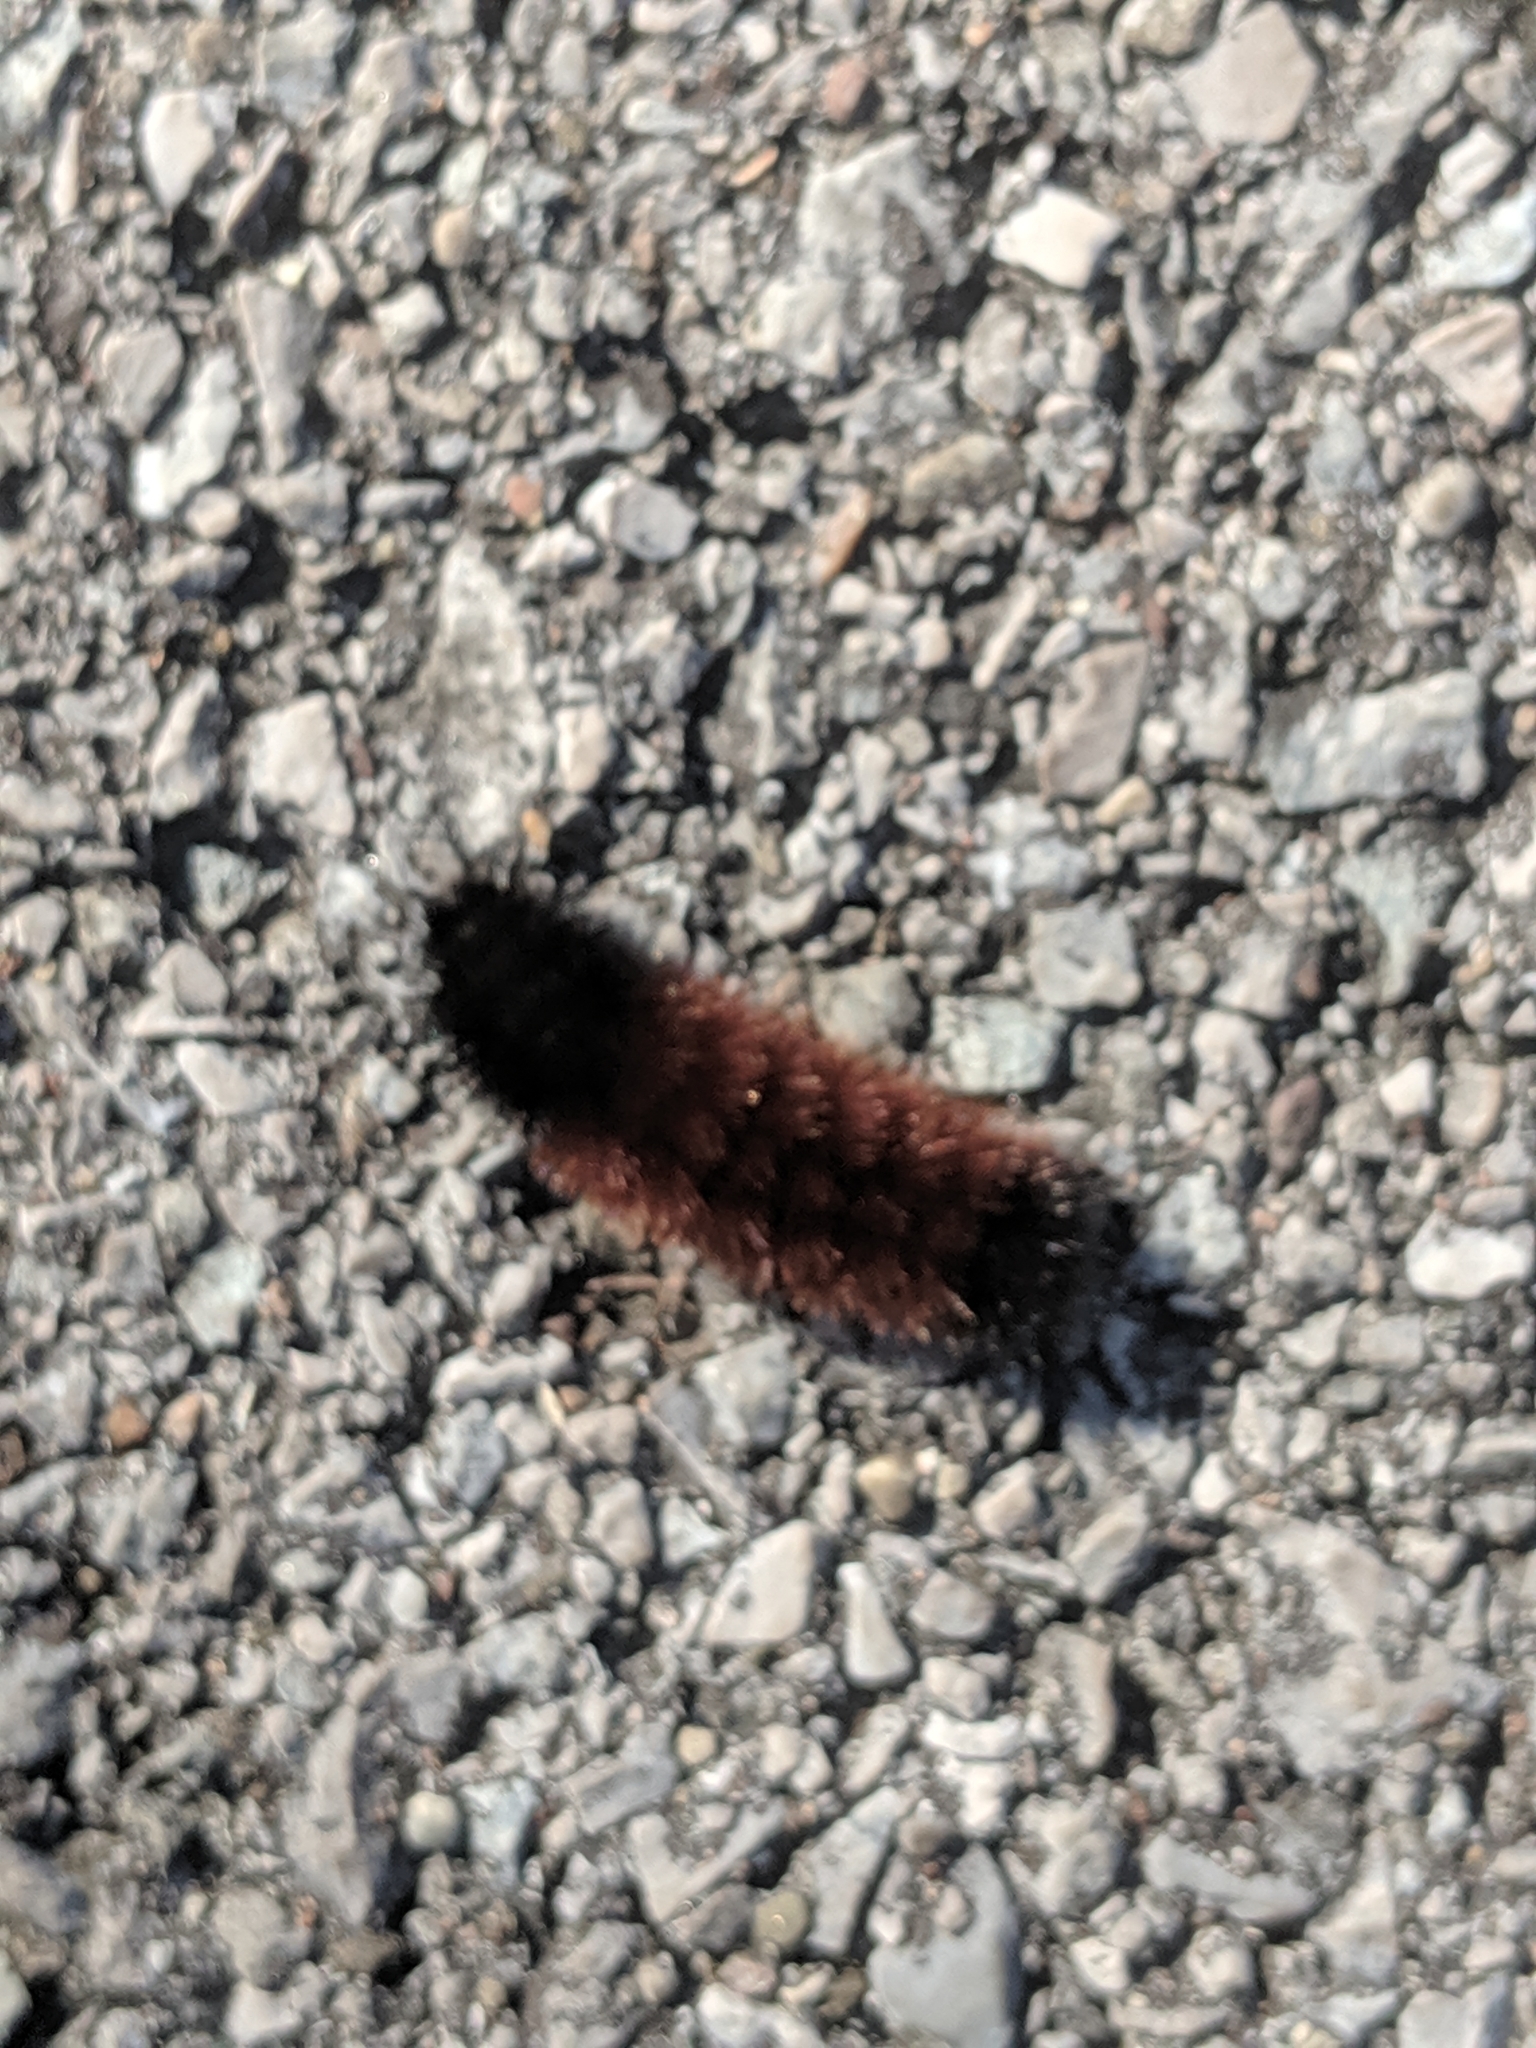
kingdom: Animalia
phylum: Arthropoda
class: Insecta
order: Lepidoptera
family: Erebidae
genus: Pyrrharctia
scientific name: Pyrrharctia isabella
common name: Isabella tiger moth
